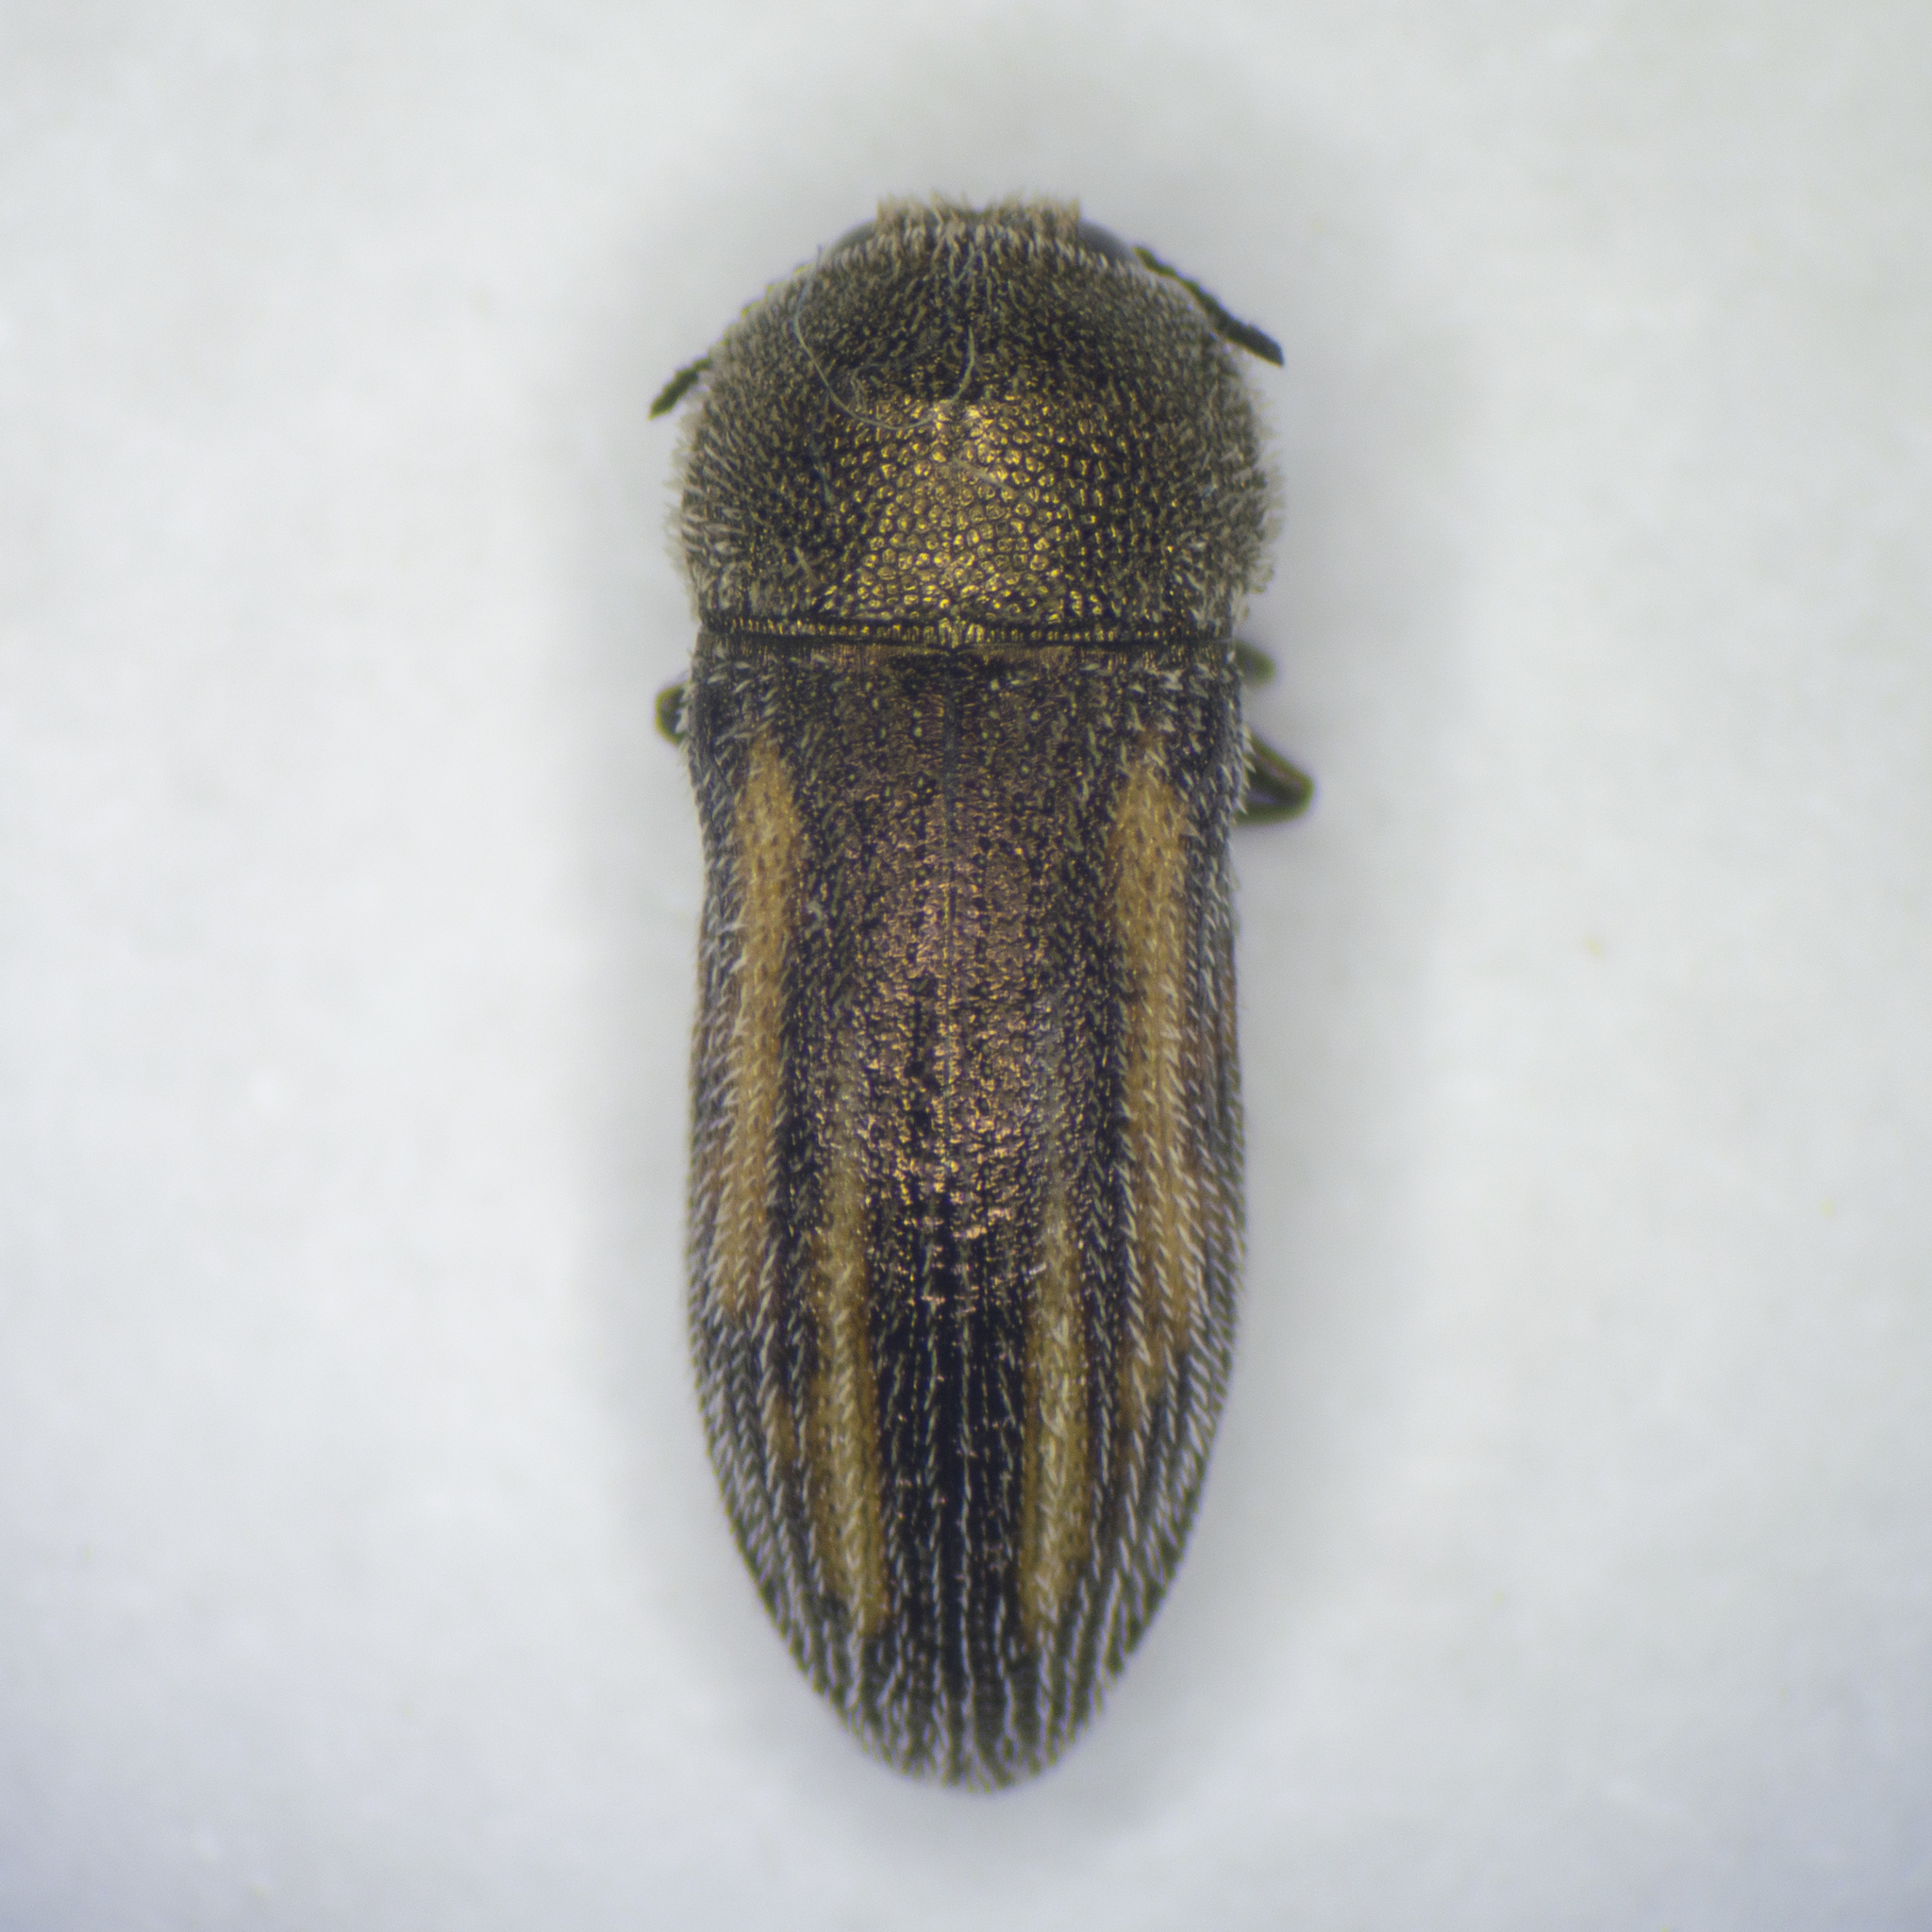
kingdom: Animalia
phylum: Arthropoda
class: Insecta
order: Coleoptera
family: Buprestidae
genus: Acmaeoderella
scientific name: Acmaeoderella cypriota
